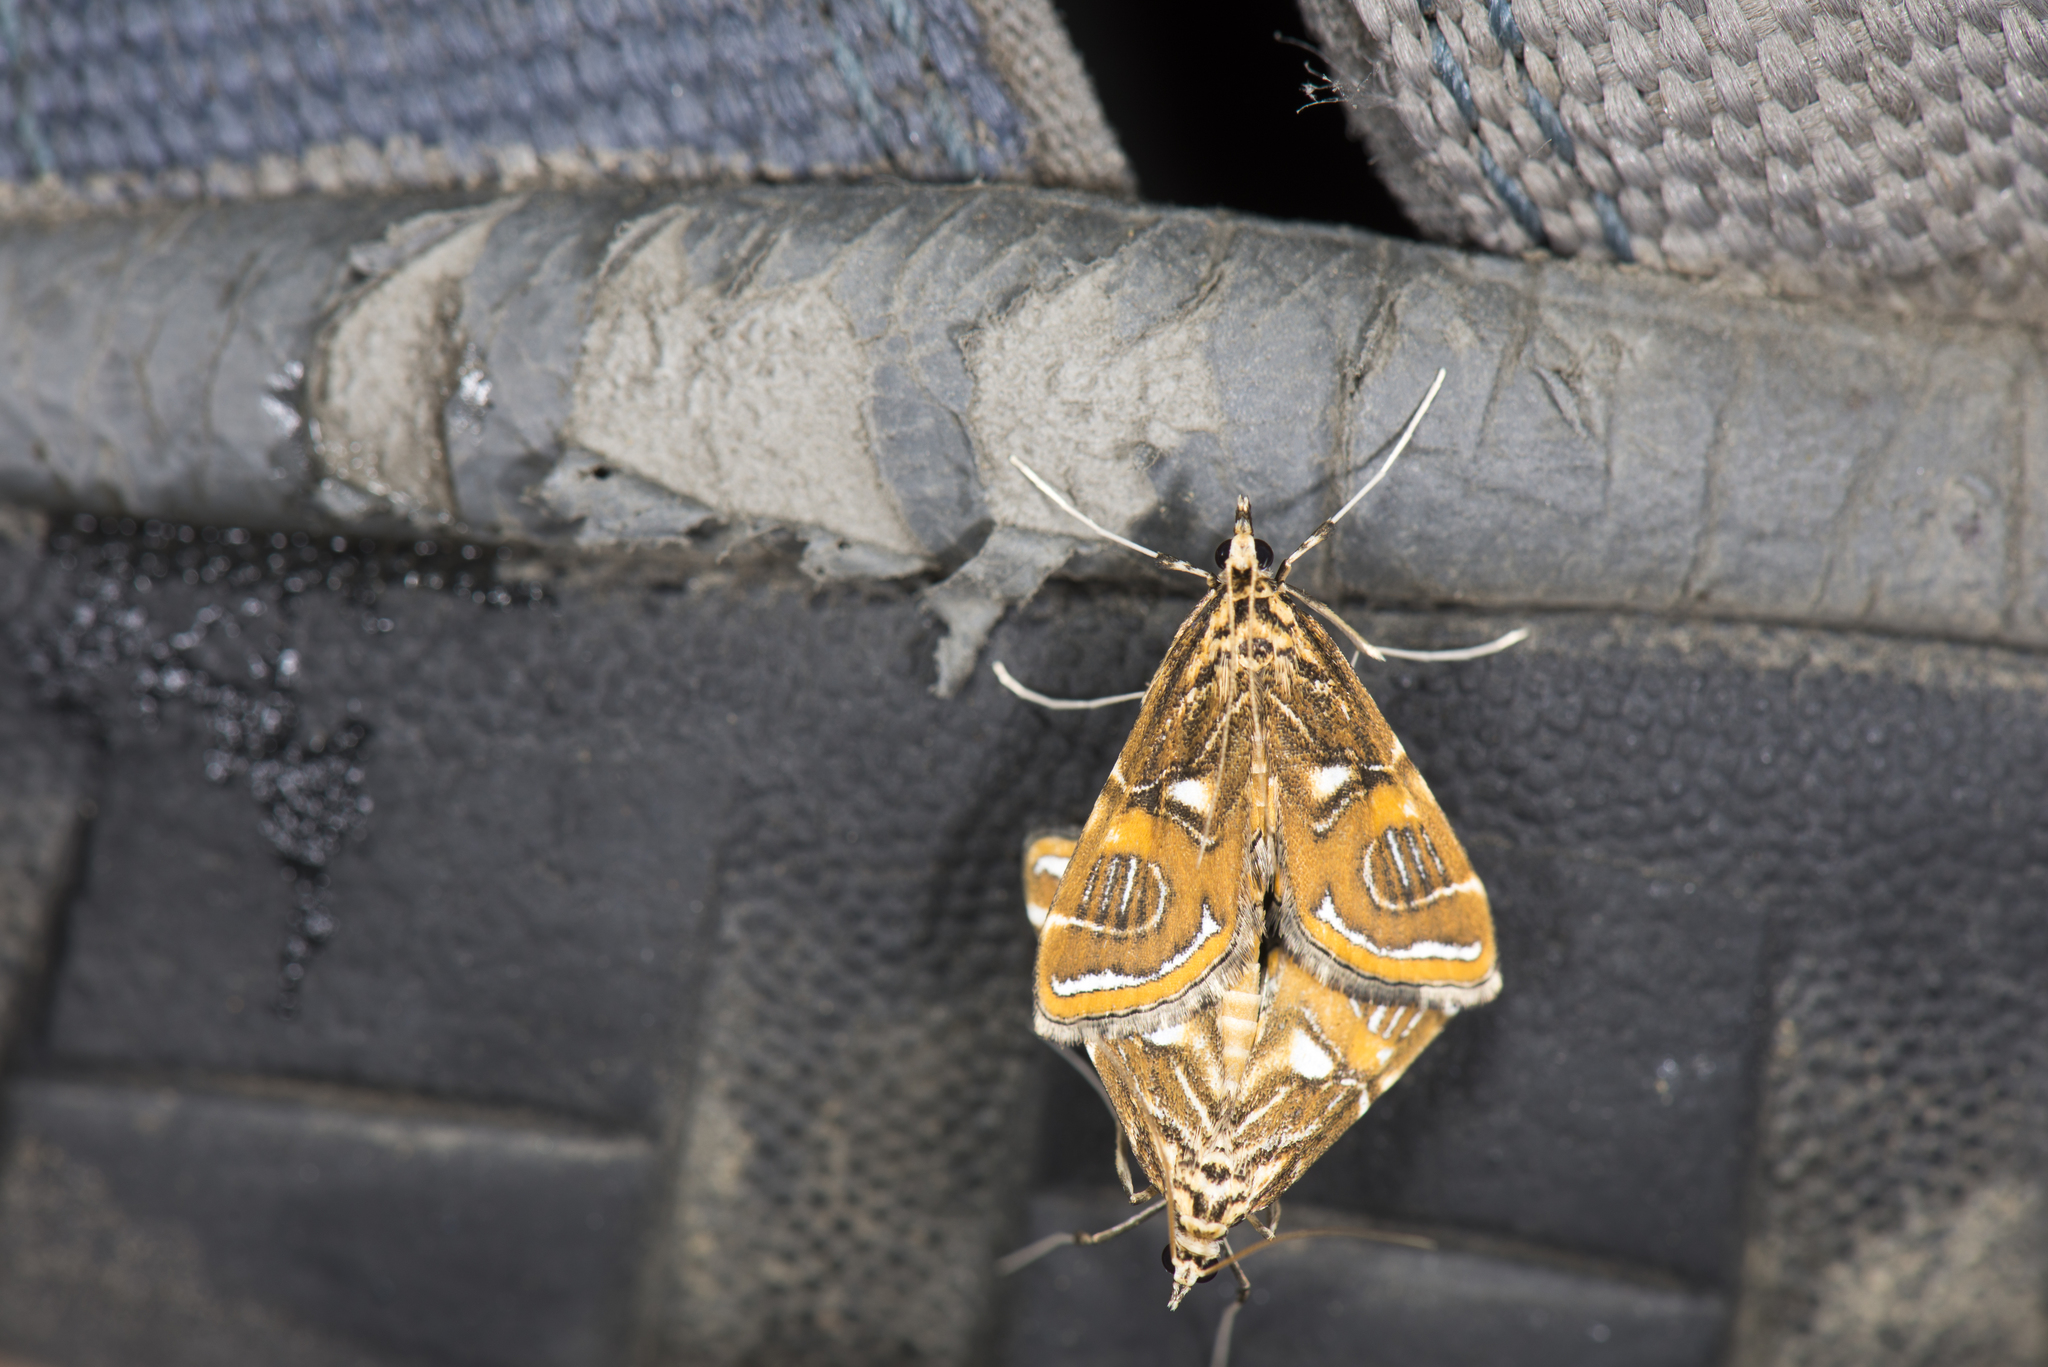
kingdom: Animalia
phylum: Arthropoda
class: Insecta
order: Lepidoptera
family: Crambidae
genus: Paracymoriza
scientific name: Paracymoriza cataclystalis
